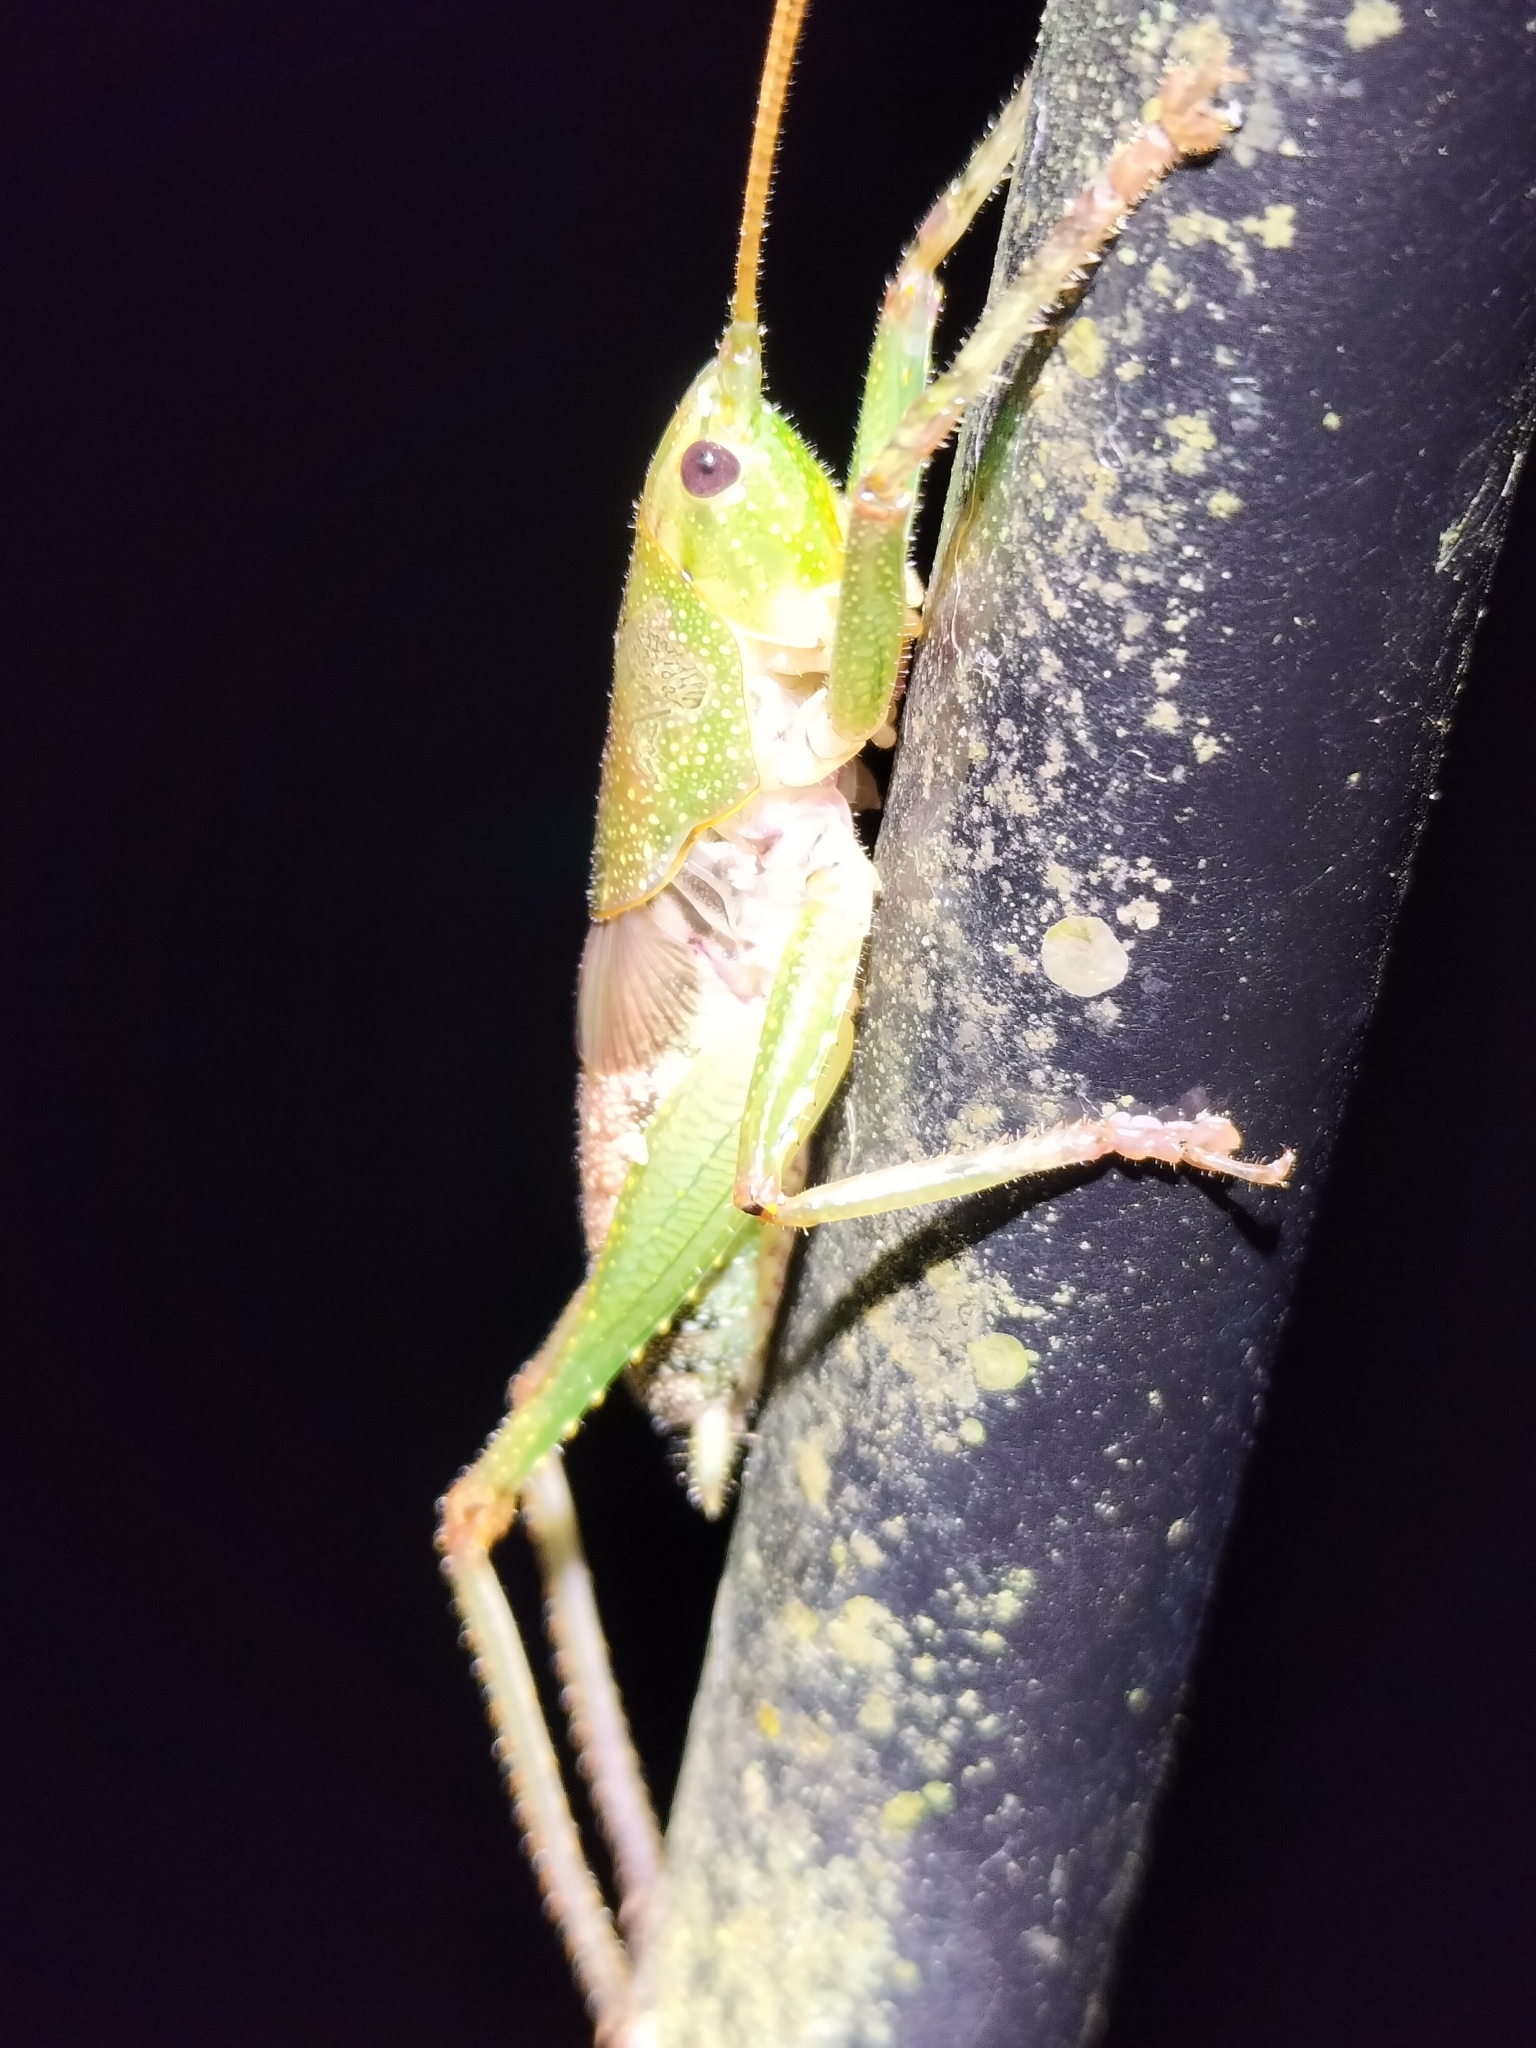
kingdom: Animalia
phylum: Arthropoda
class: Insecta
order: Orthoptera
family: Tettigoniidae
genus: Austrosalomona
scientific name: Austrosalomona destructor
